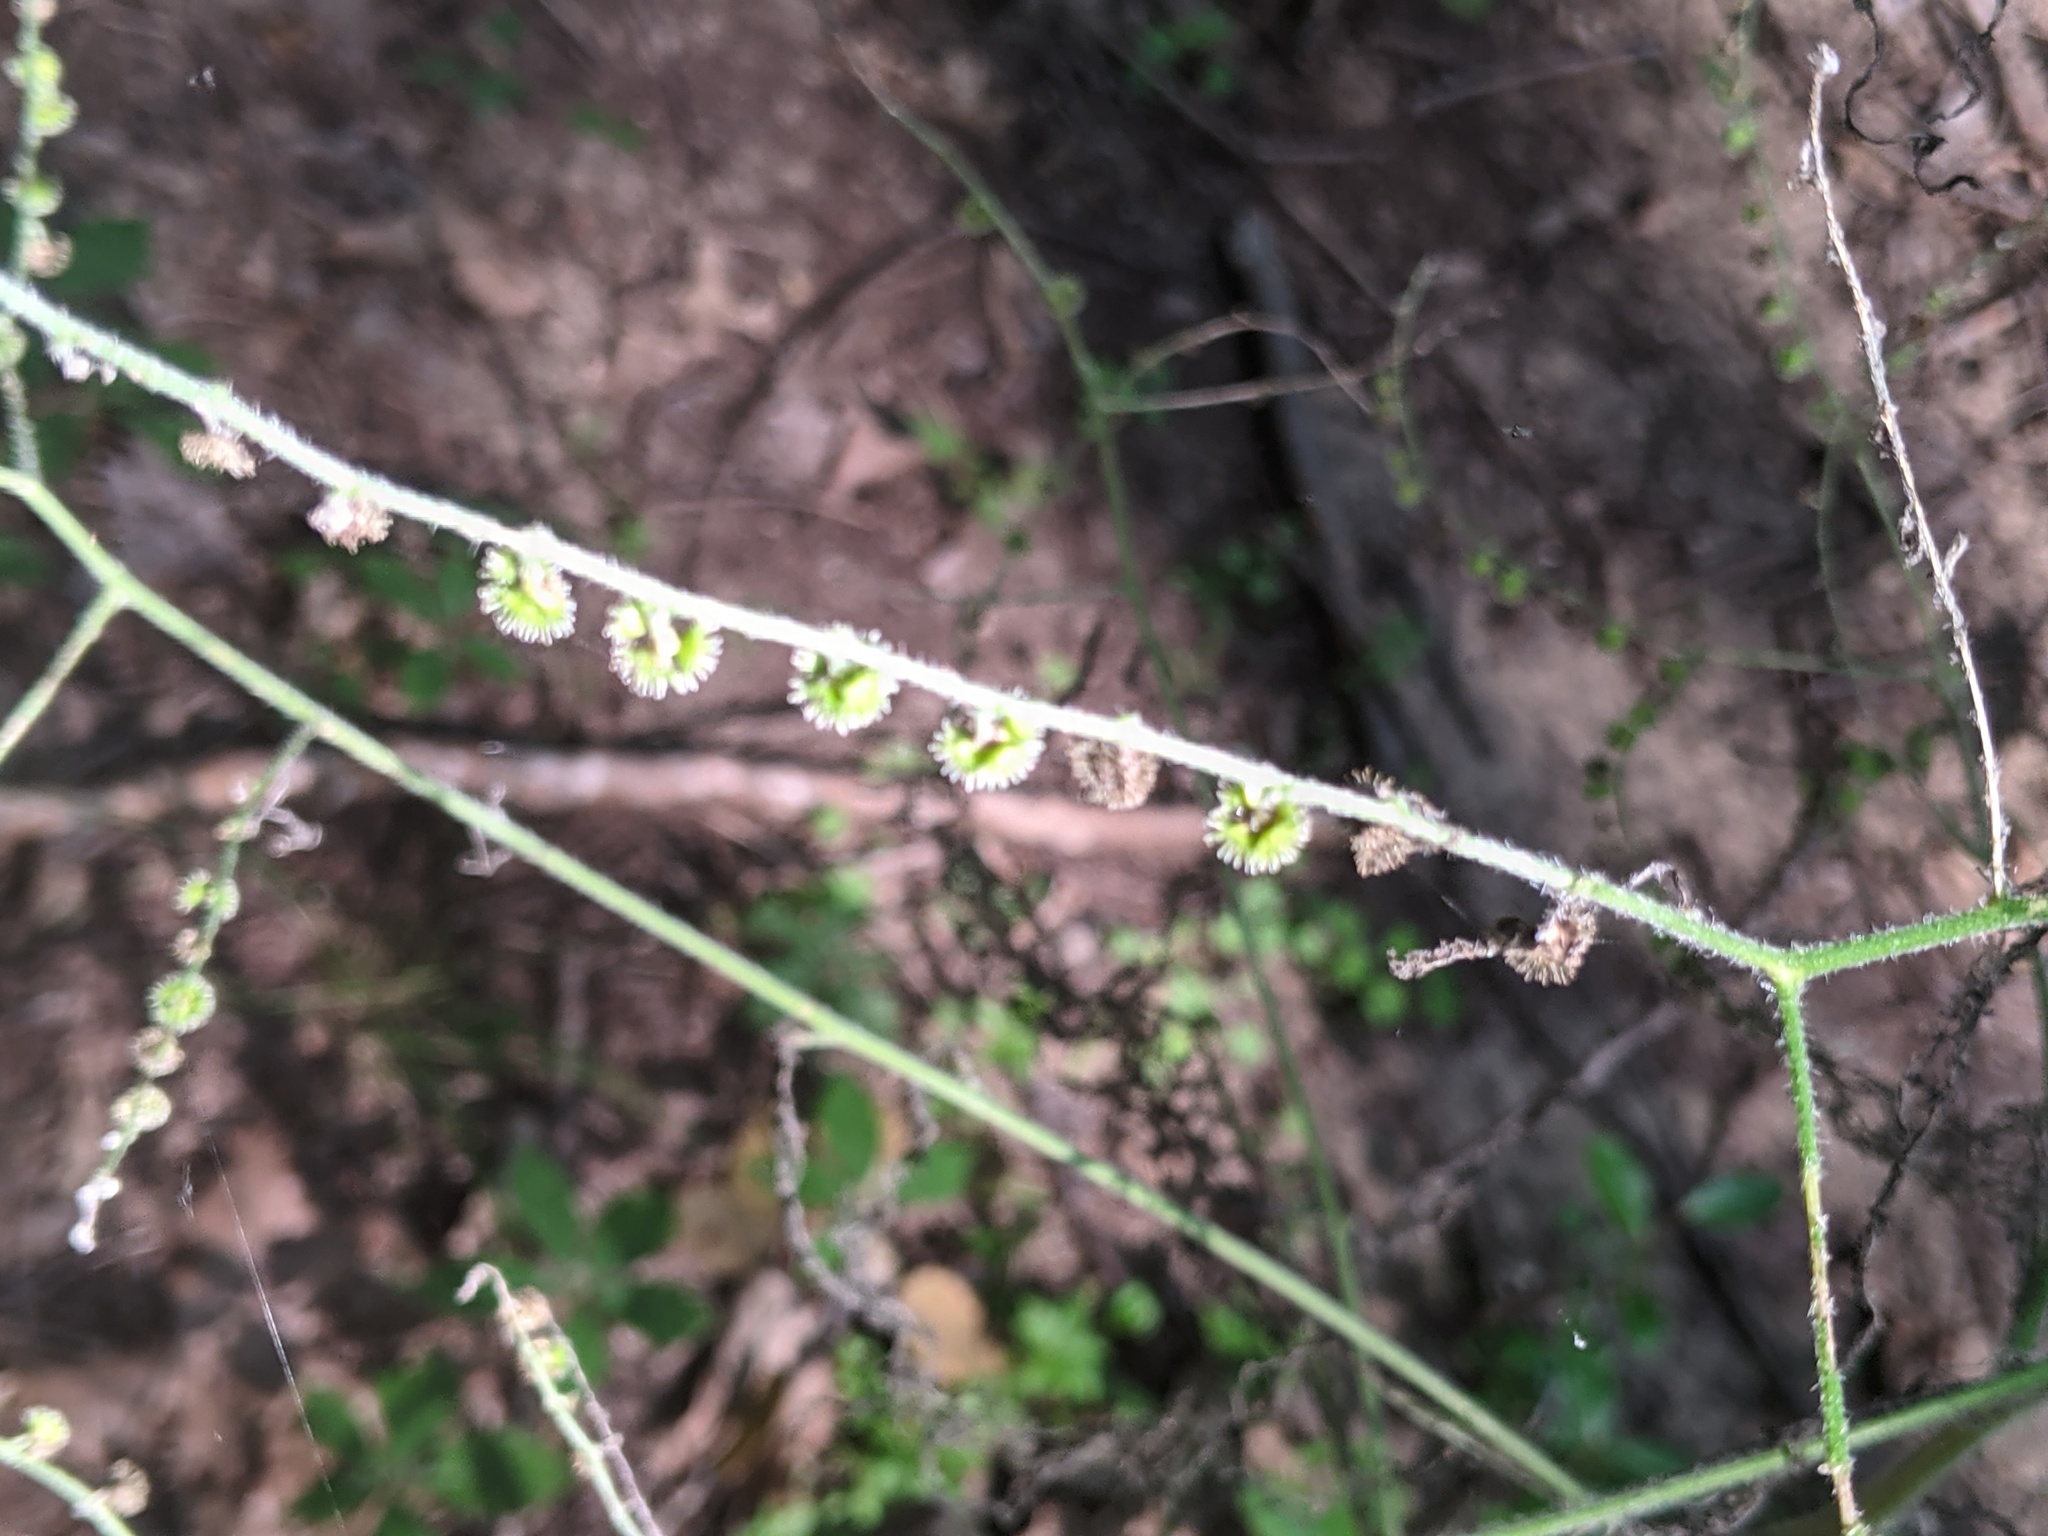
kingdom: Plantae
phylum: Tracheophyta
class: Magnoliopsida
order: Boraginales
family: Boraginaceae
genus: Hackelia
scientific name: Hackelia virginiana
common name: Beggar's-lice
